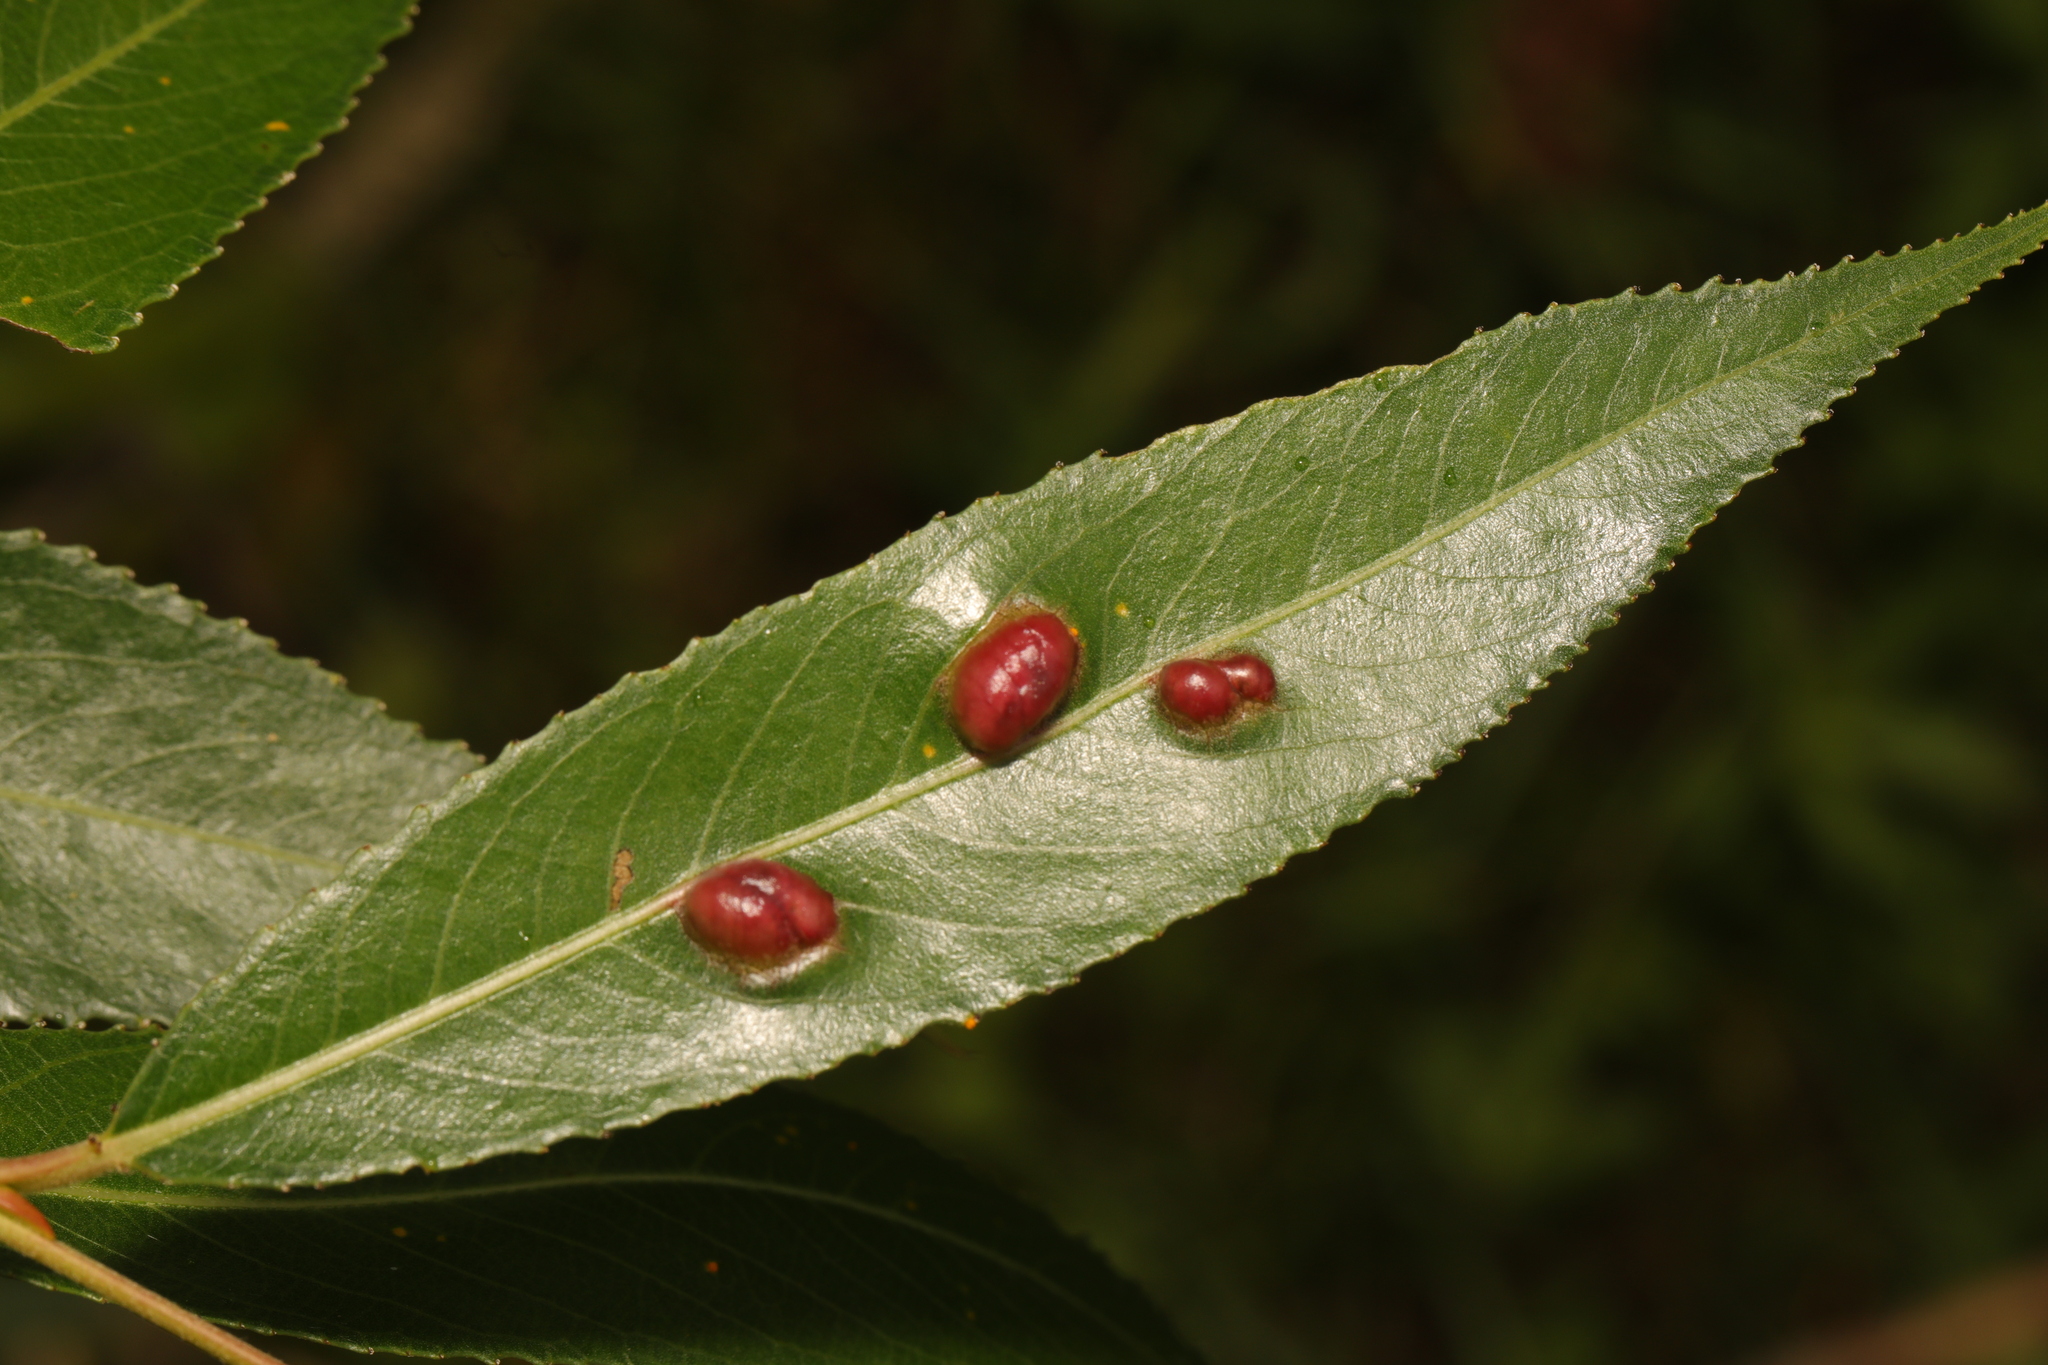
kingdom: Animalia
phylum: Arthropoda
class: Insecta
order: Hymenoptera
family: Tenthredinidae
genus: Pontania
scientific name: Pontania proxima
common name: Common sawfly
